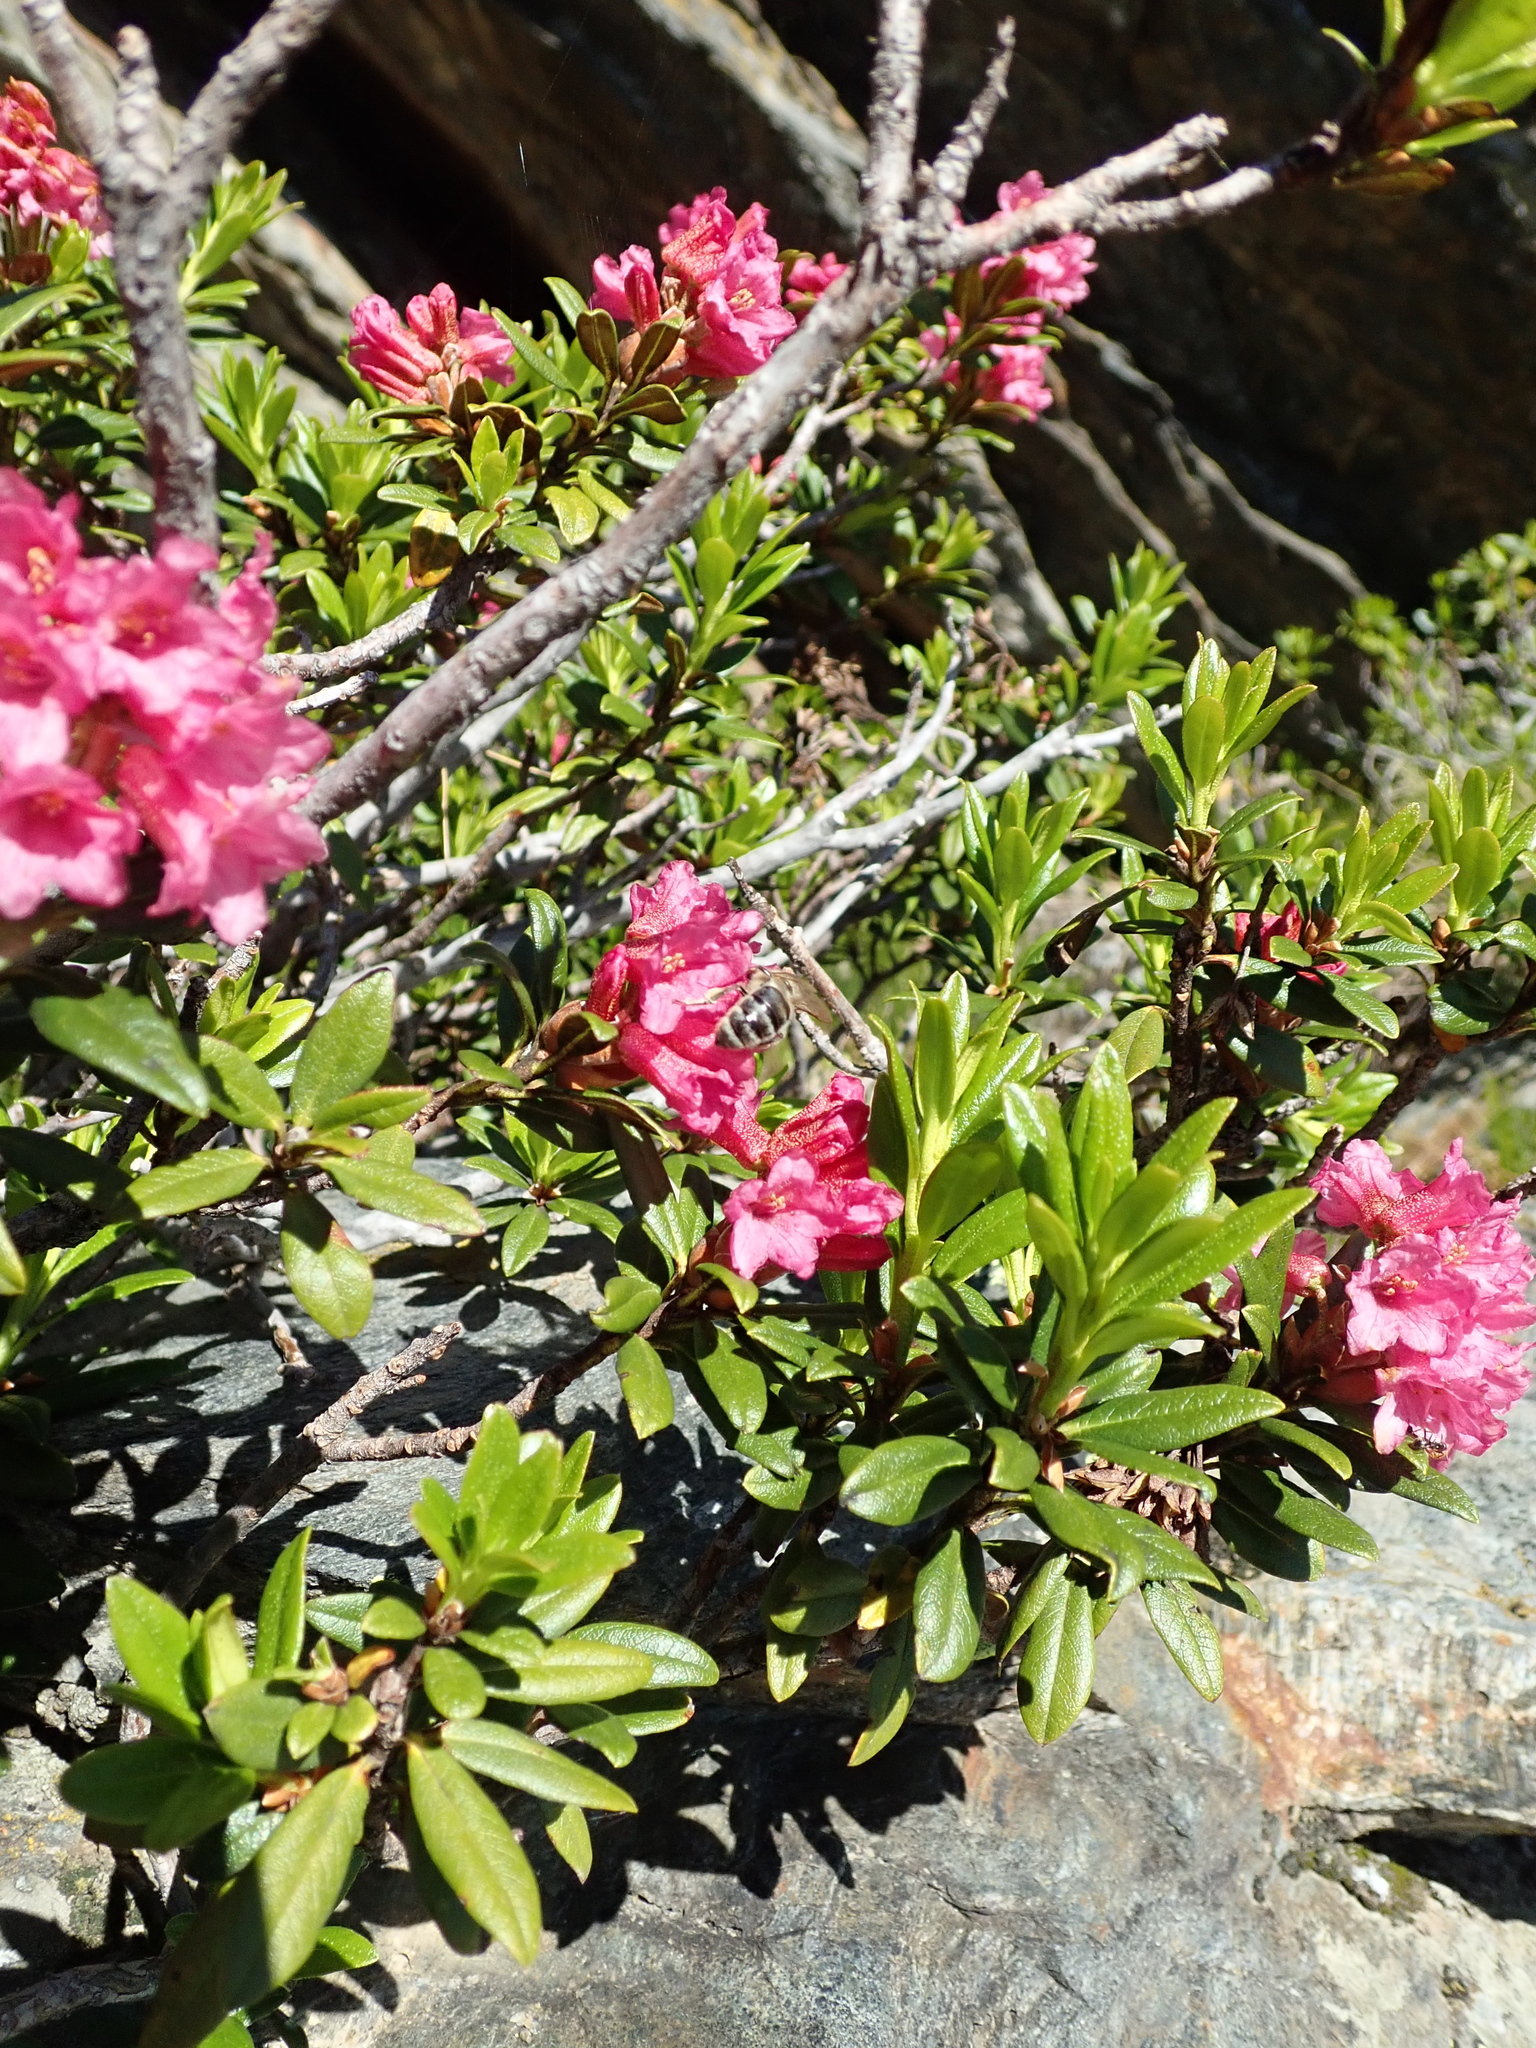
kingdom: Animalia
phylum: Arthropoda
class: Insecta
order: Hymenoptera
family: Apidae
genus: Apis
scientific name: Apis mellifera
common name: Honey bee
